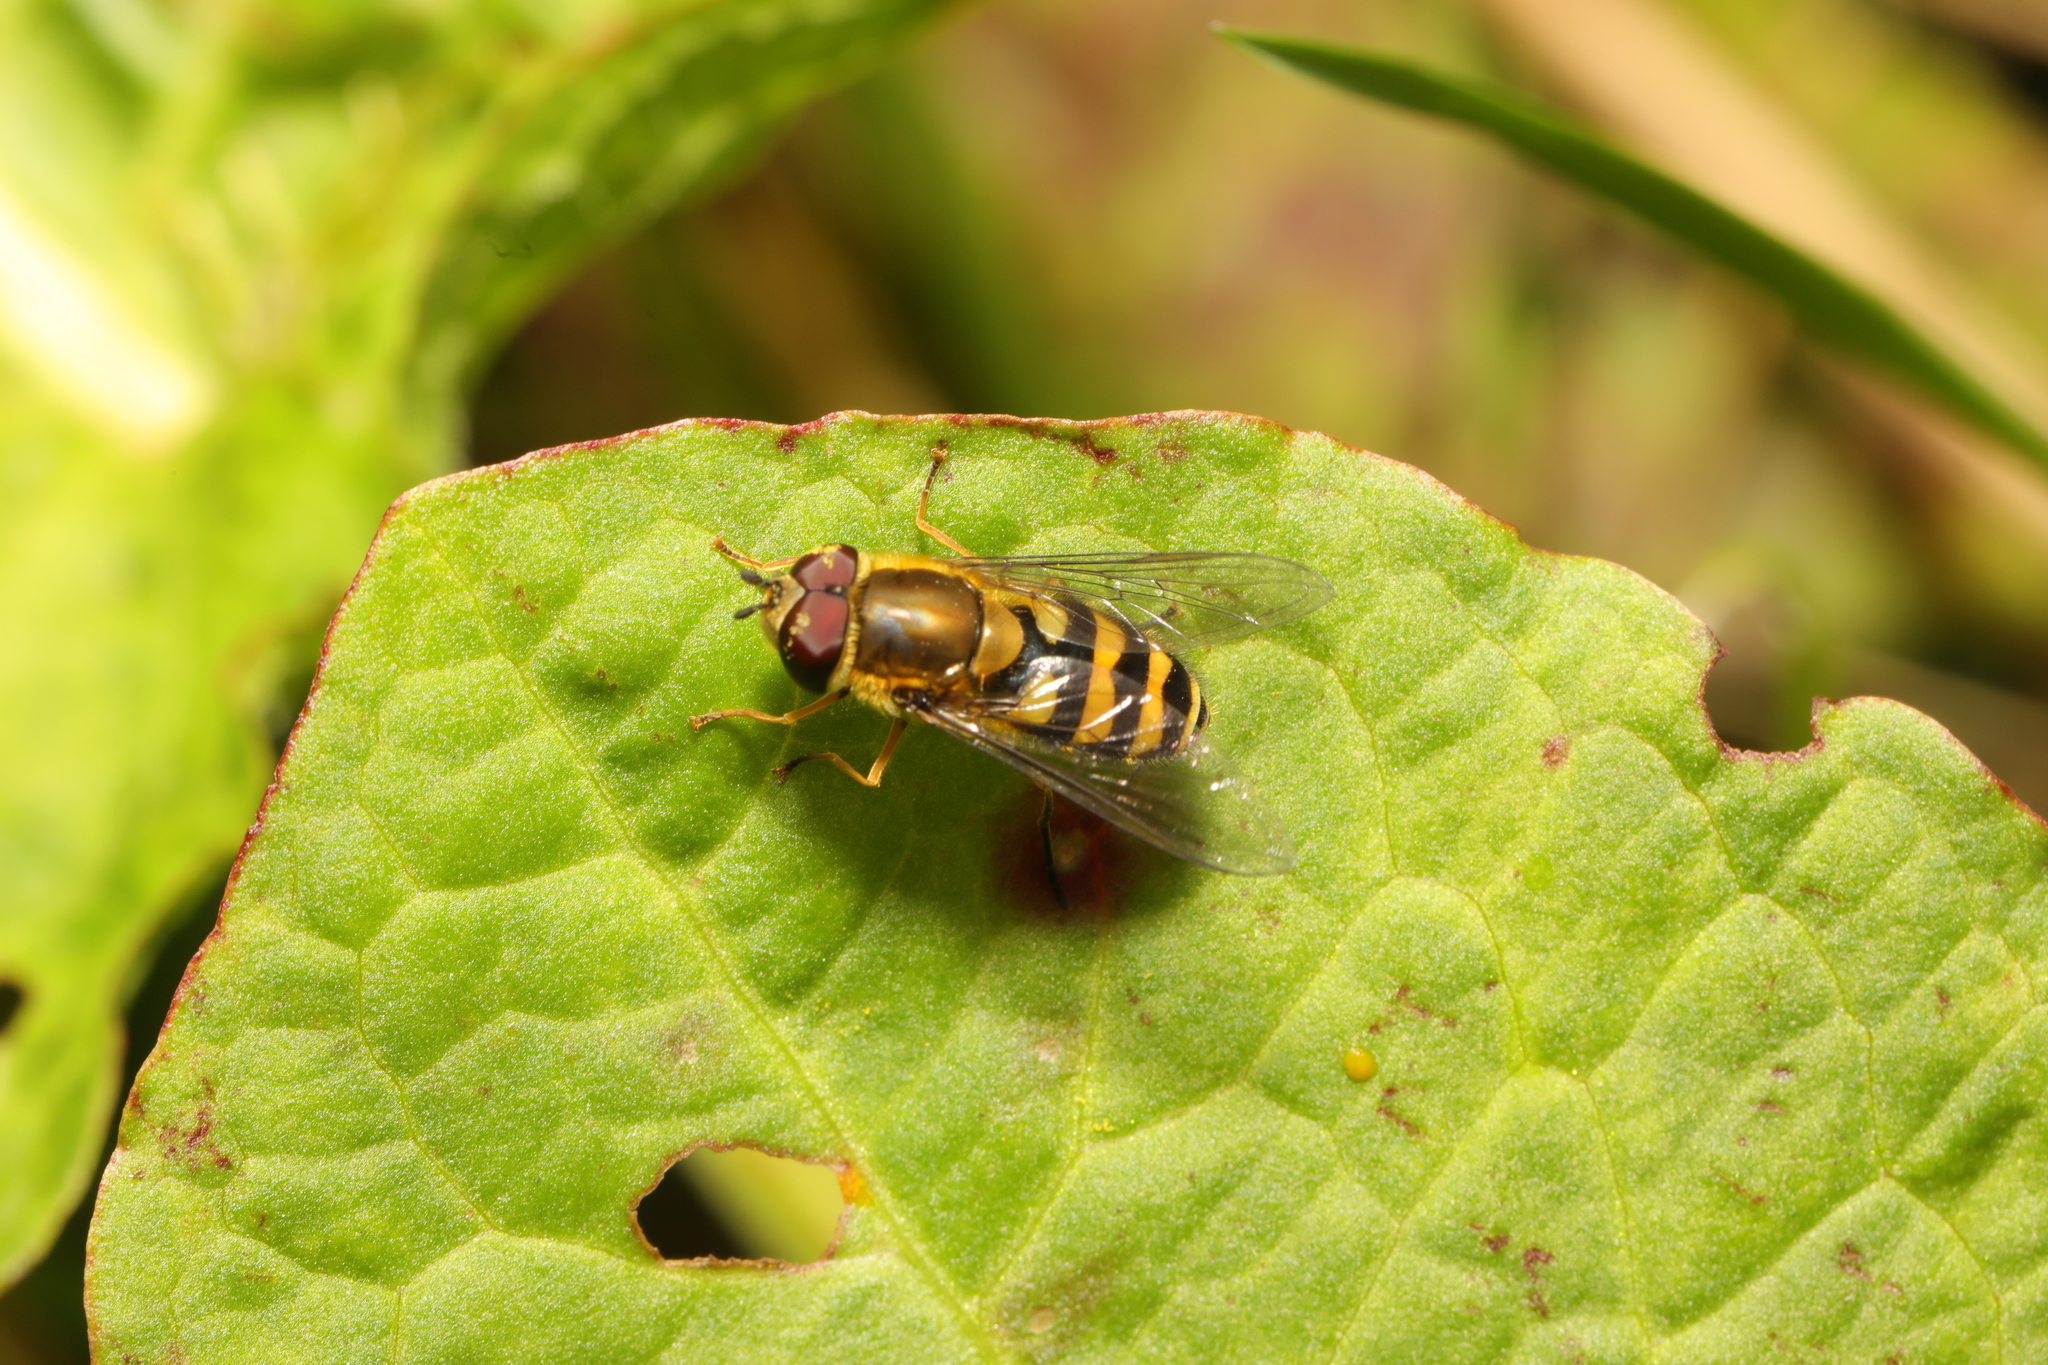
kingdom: Animalia
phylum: Arthropoda
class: Insecta
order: Diptera
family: Syrphidae
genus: Syrphus
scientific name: Syrphus
